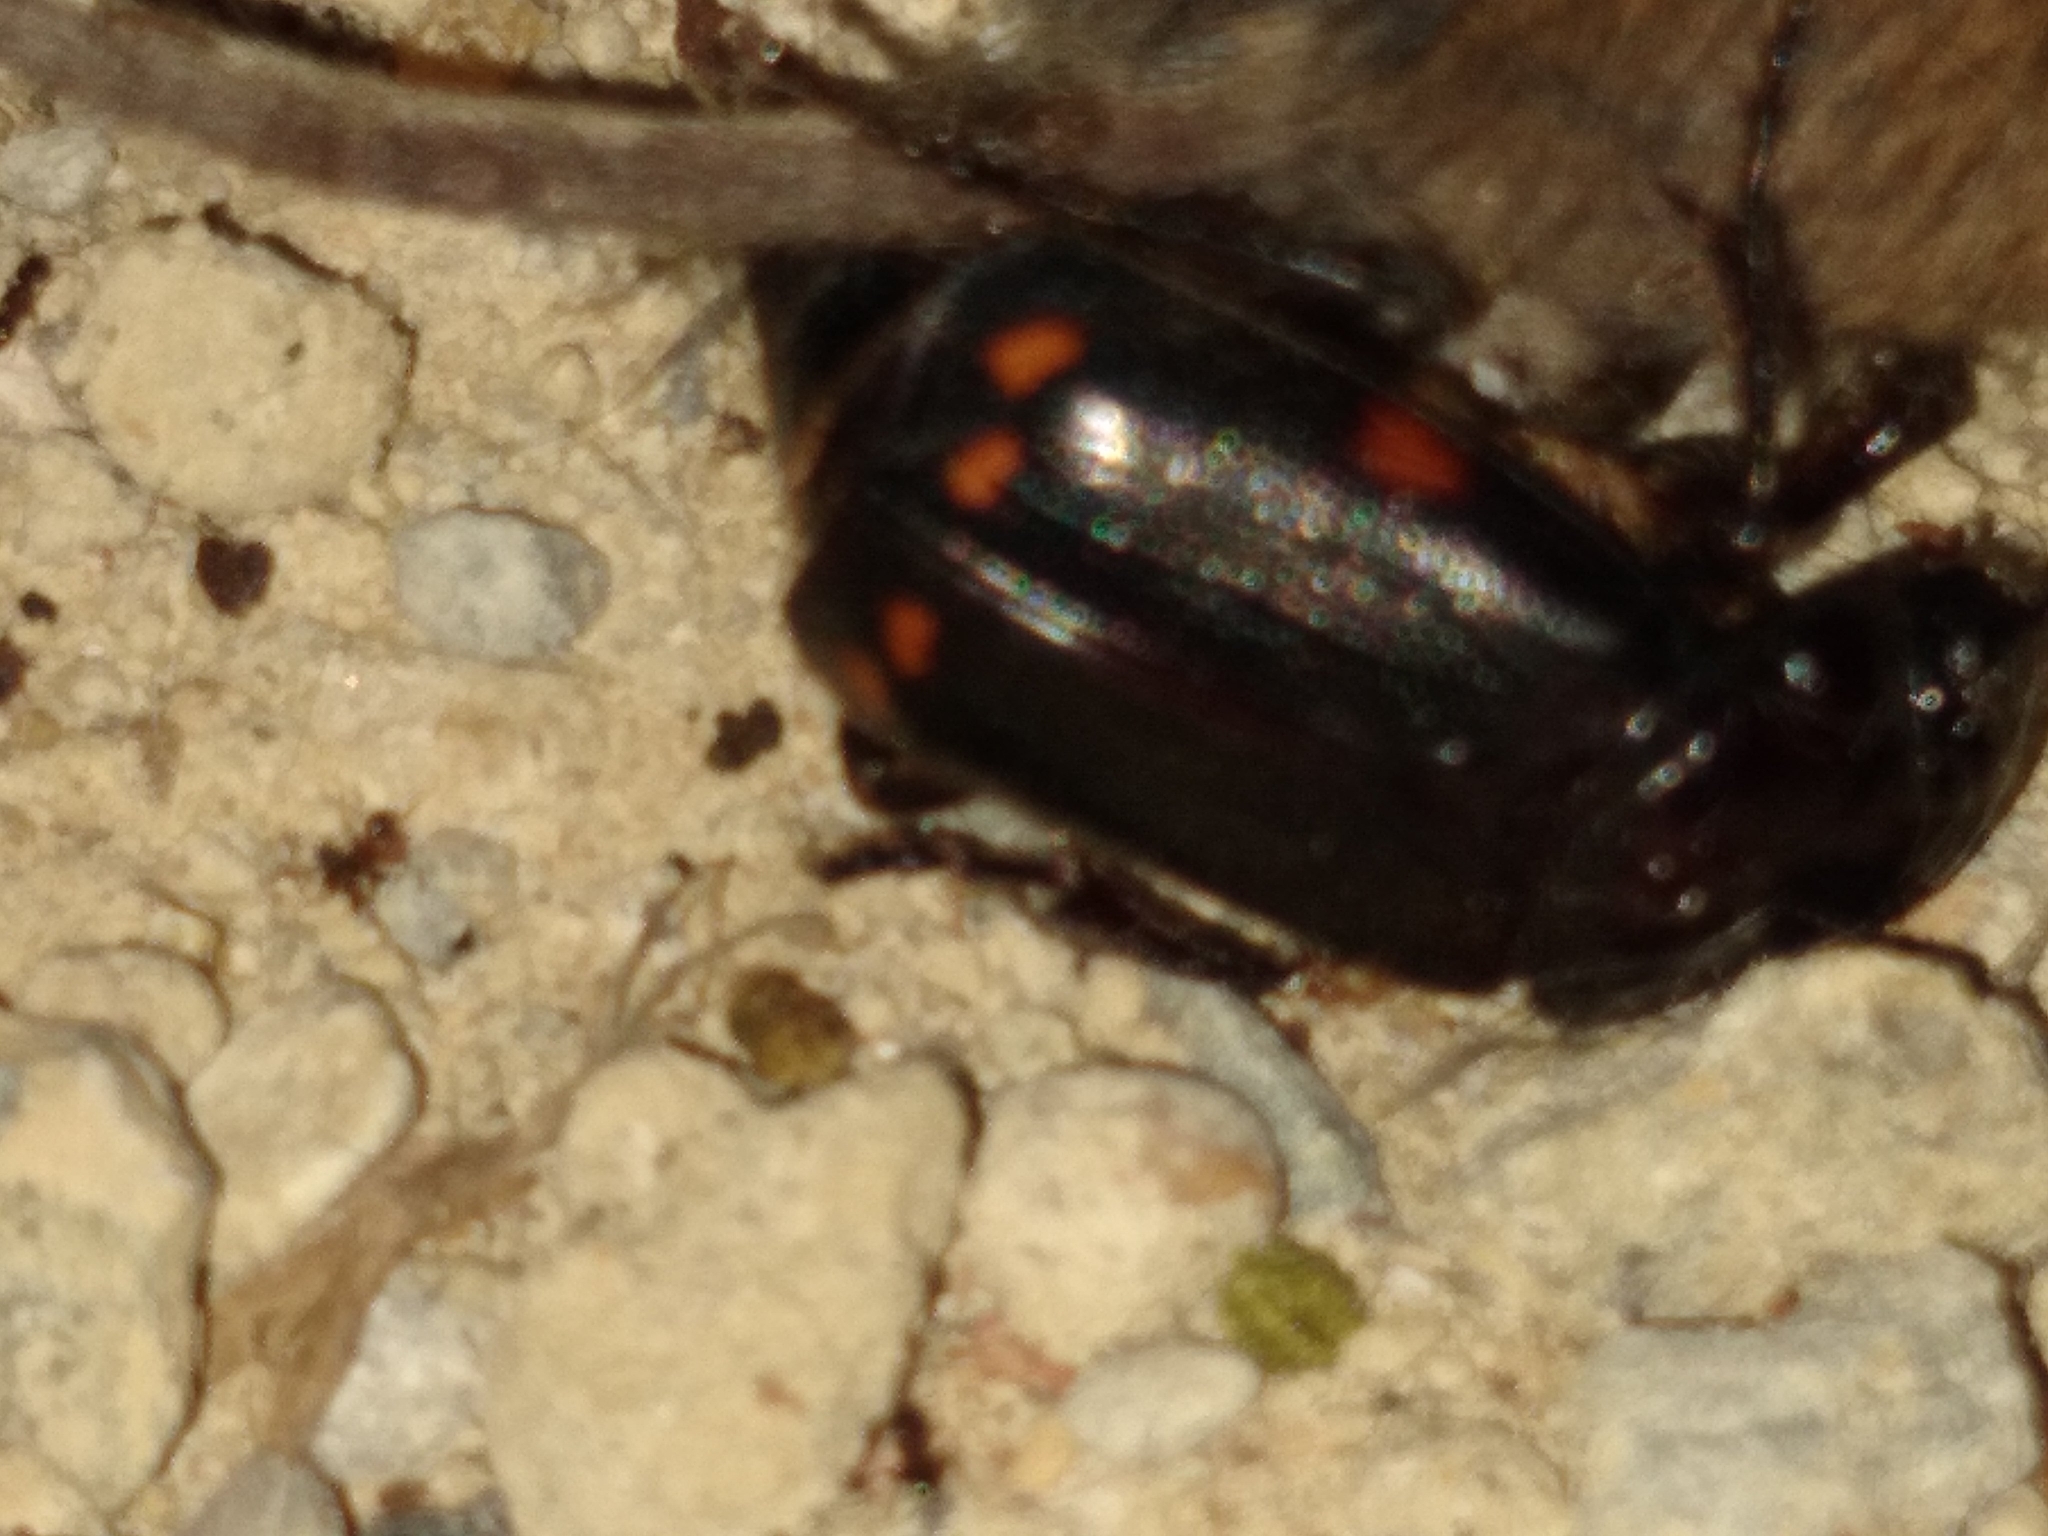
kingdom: Animalia
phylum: Arthropoda
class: Insecta
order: Coleoptera
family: Staphylinidae
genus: Nicrophorus
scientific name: Nicrophorus pustulatus
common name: Pustulated carrion beetle
